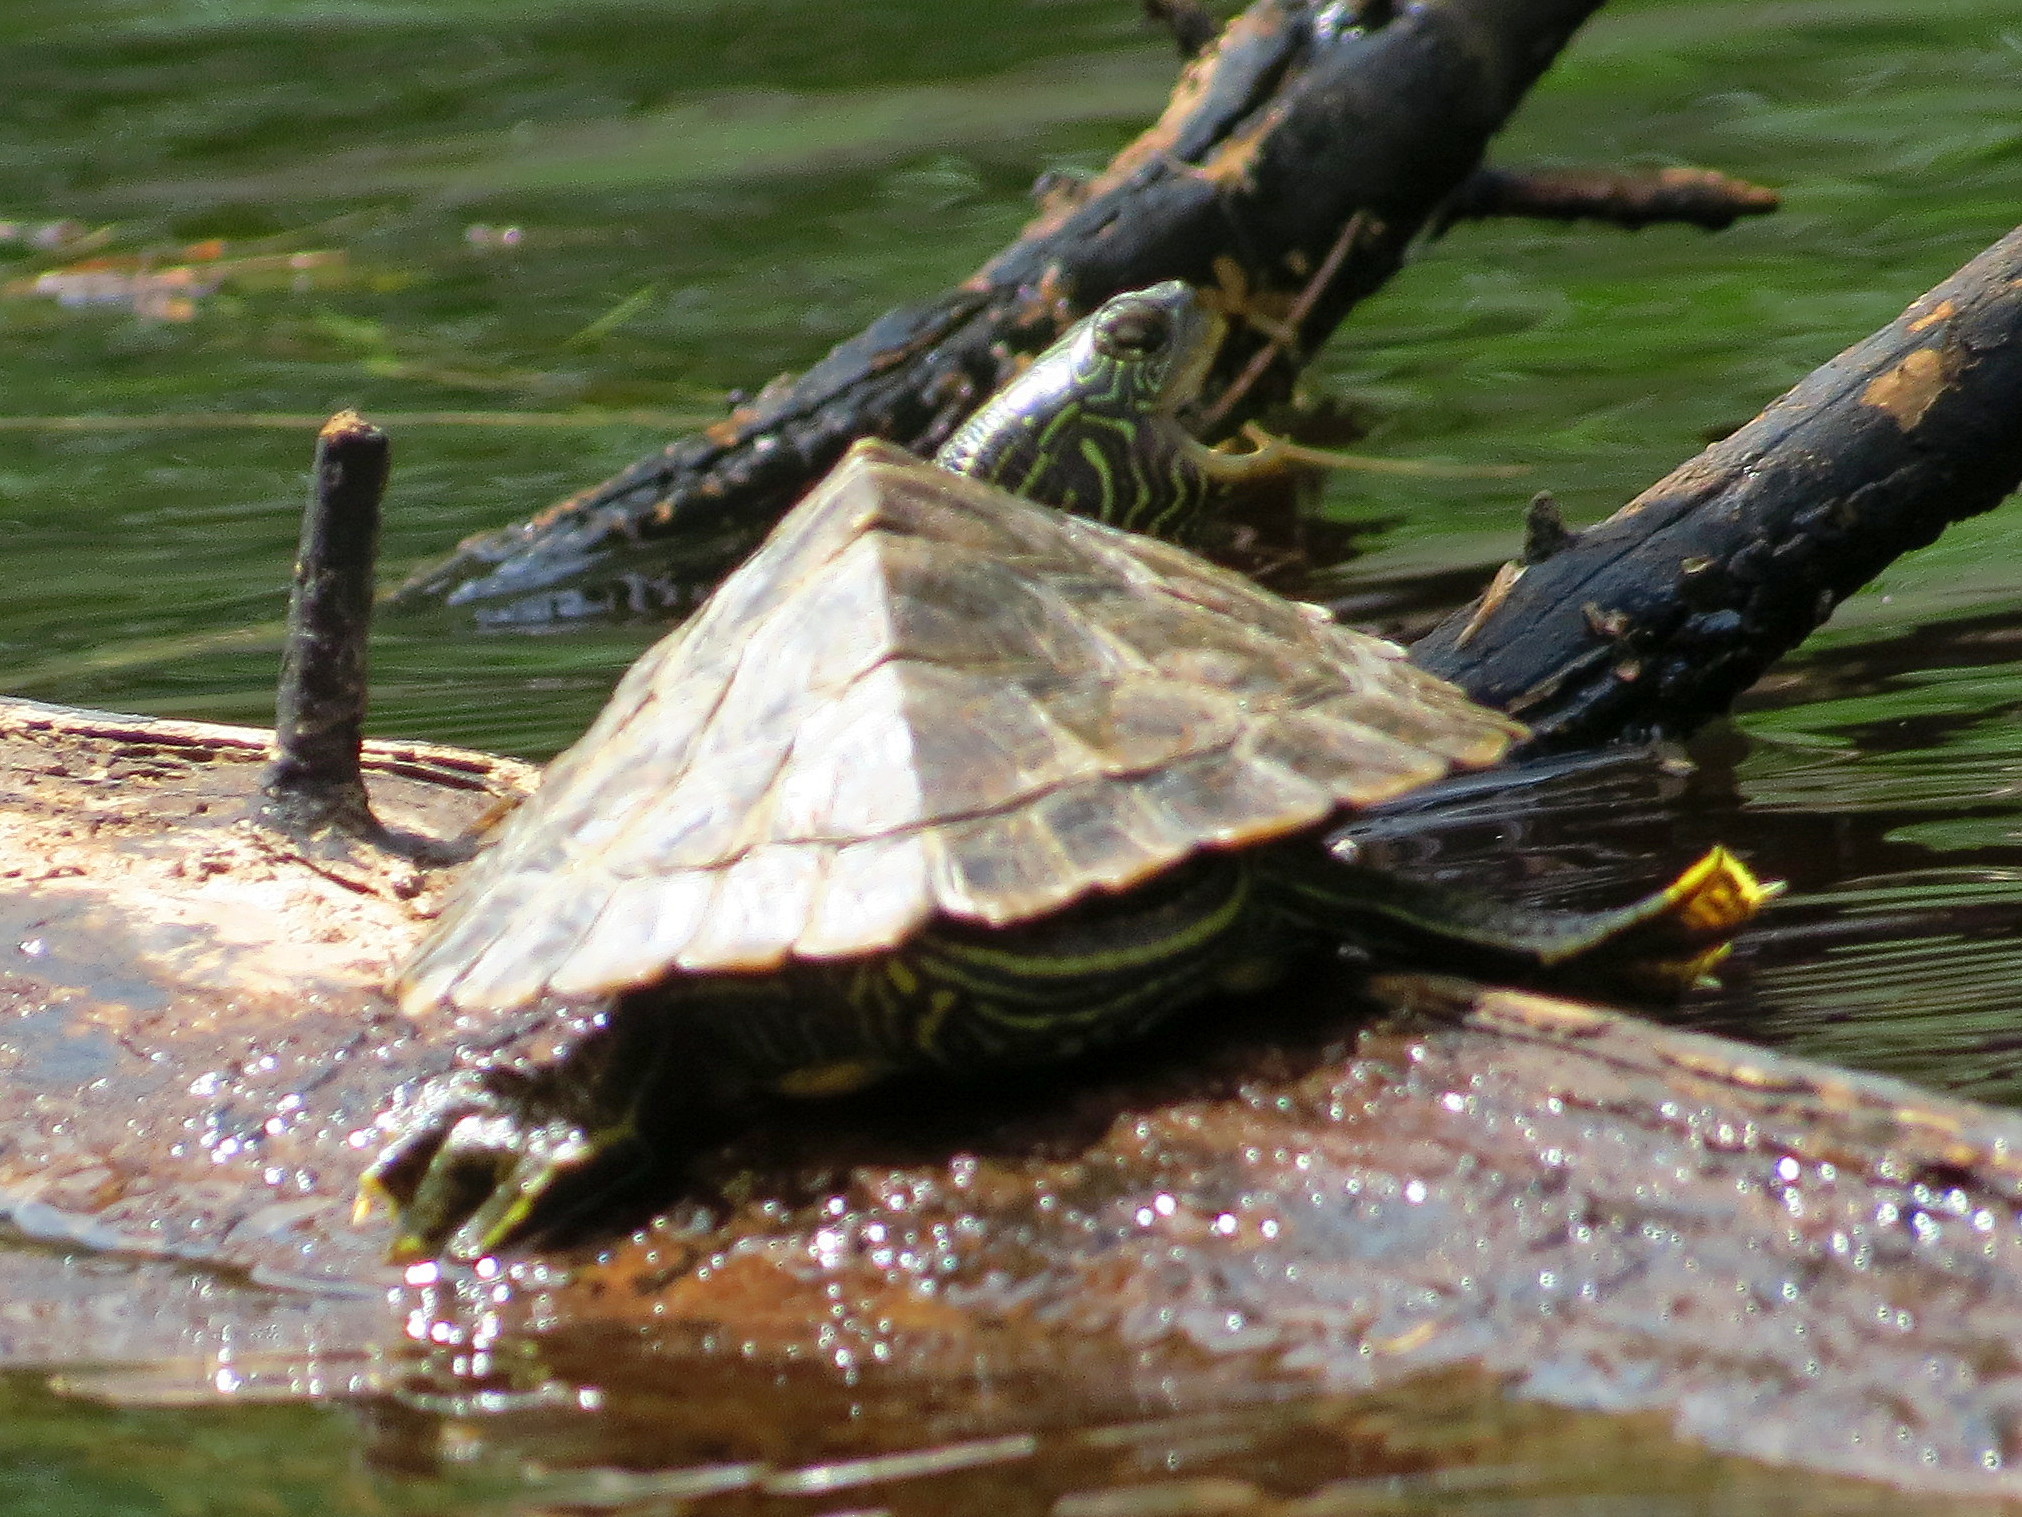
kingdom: Animalia
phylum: Chordata
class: Testudines
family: Emydidae
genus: Graptemys
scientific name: Graptemys geographica
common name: Common map turtle
